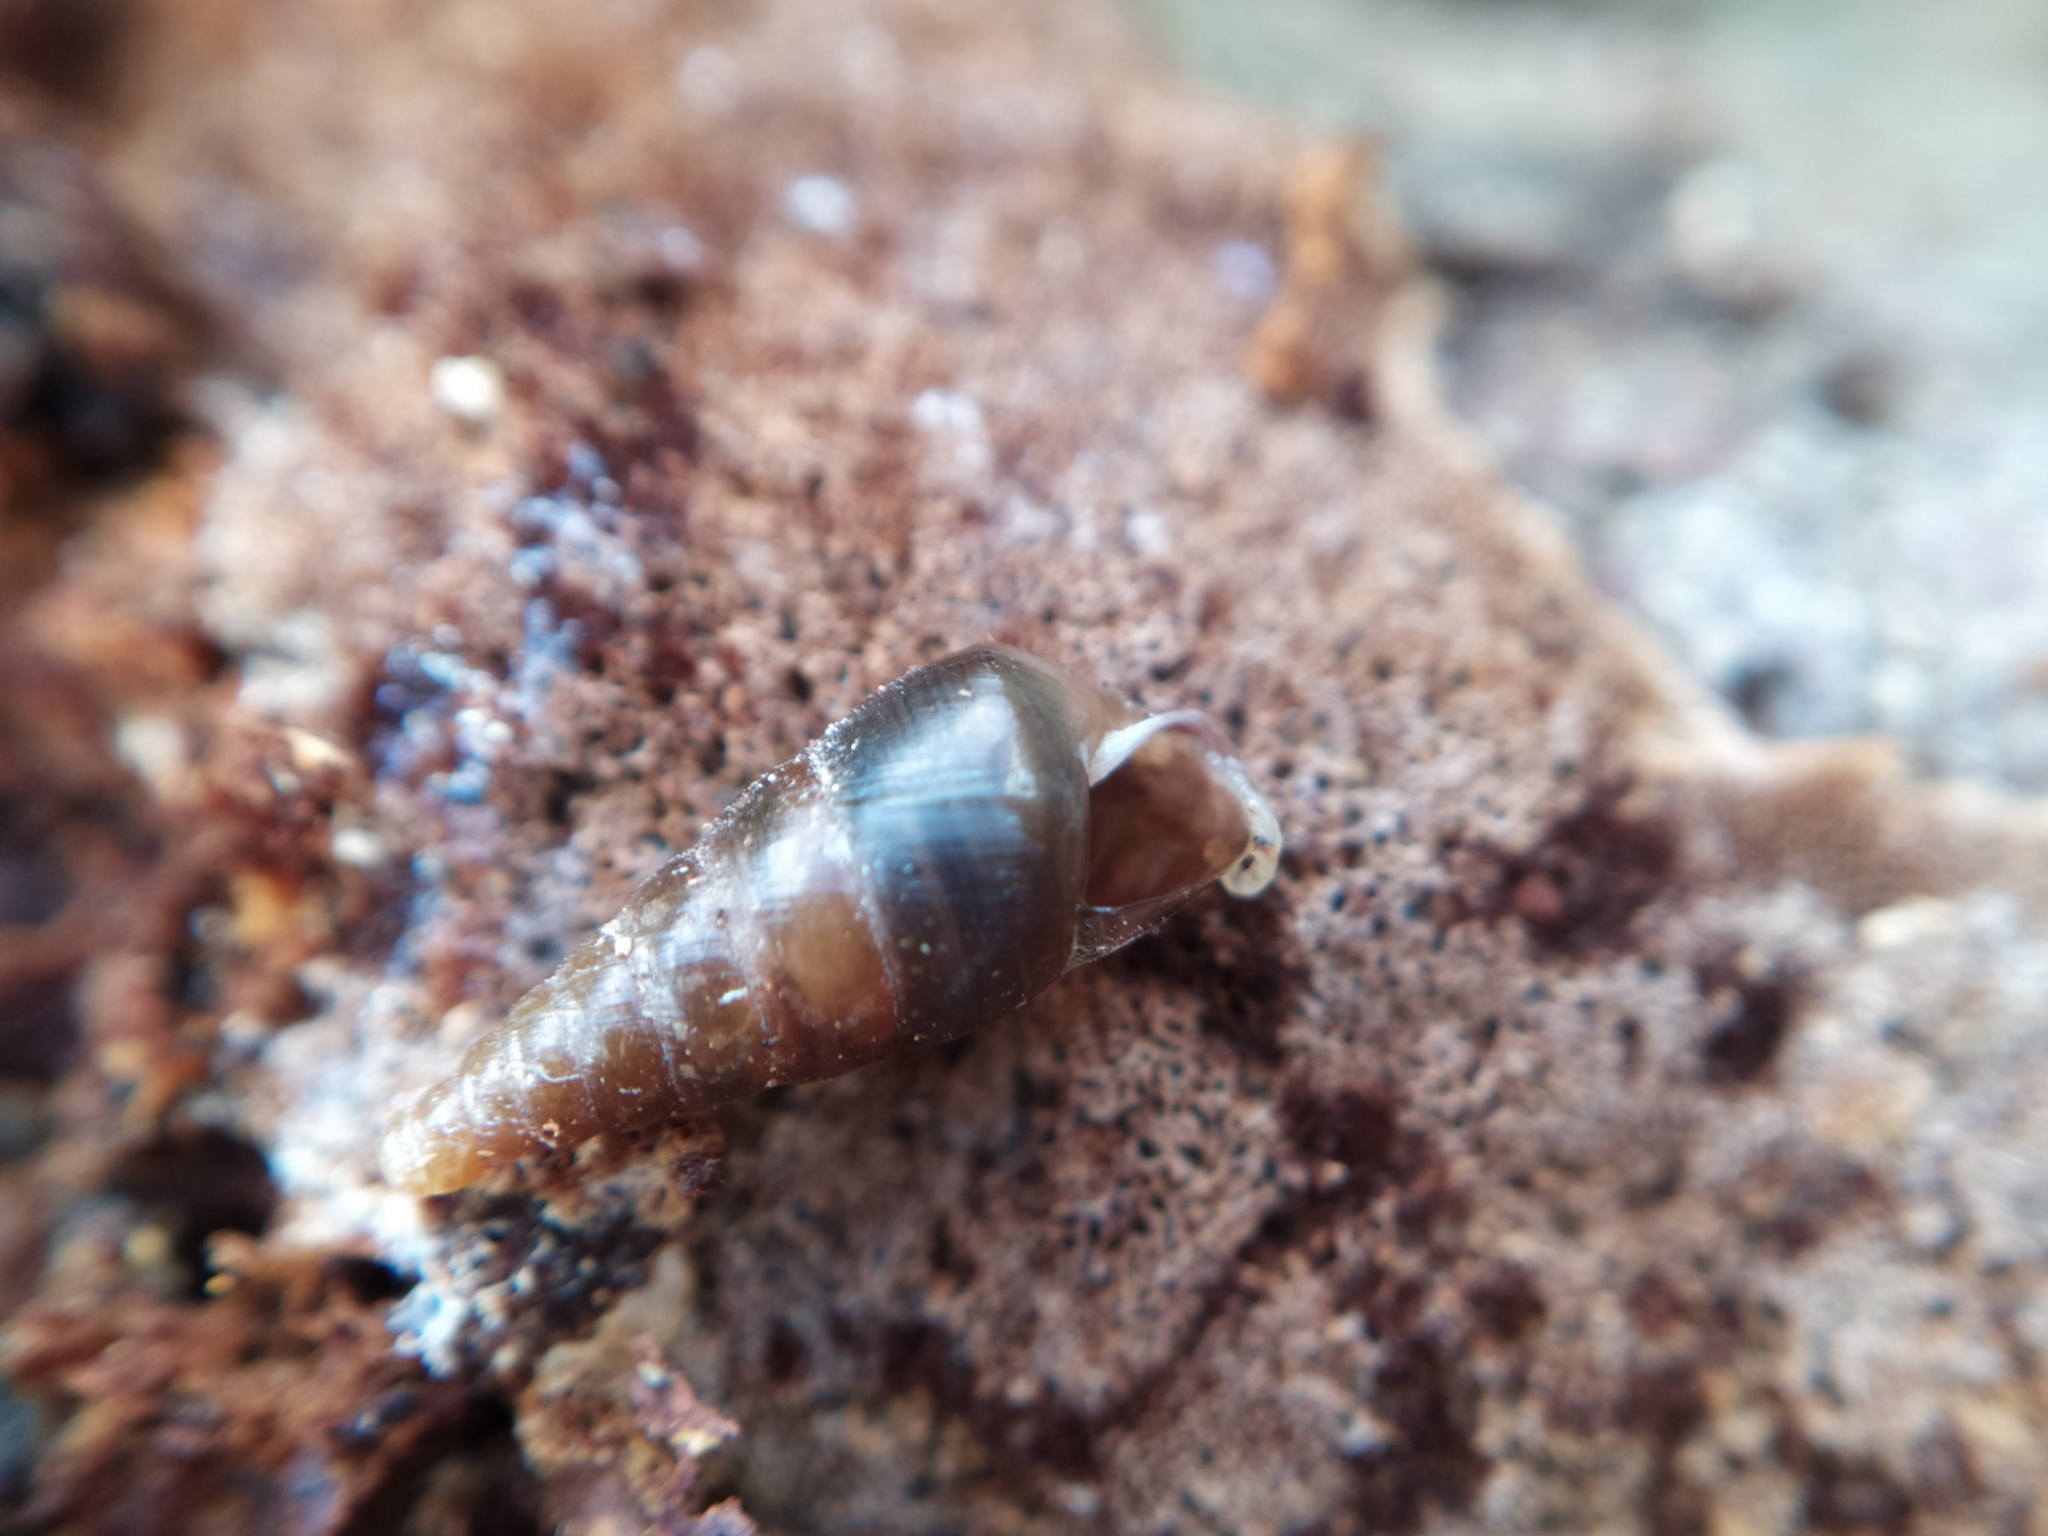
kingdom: Animalia
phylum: Mollusca
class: Gastropoda
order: Stylommatophora
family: Clausiliidae
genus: Cochlodina
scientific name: Cochlodina laminata
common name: Plaited door snail
